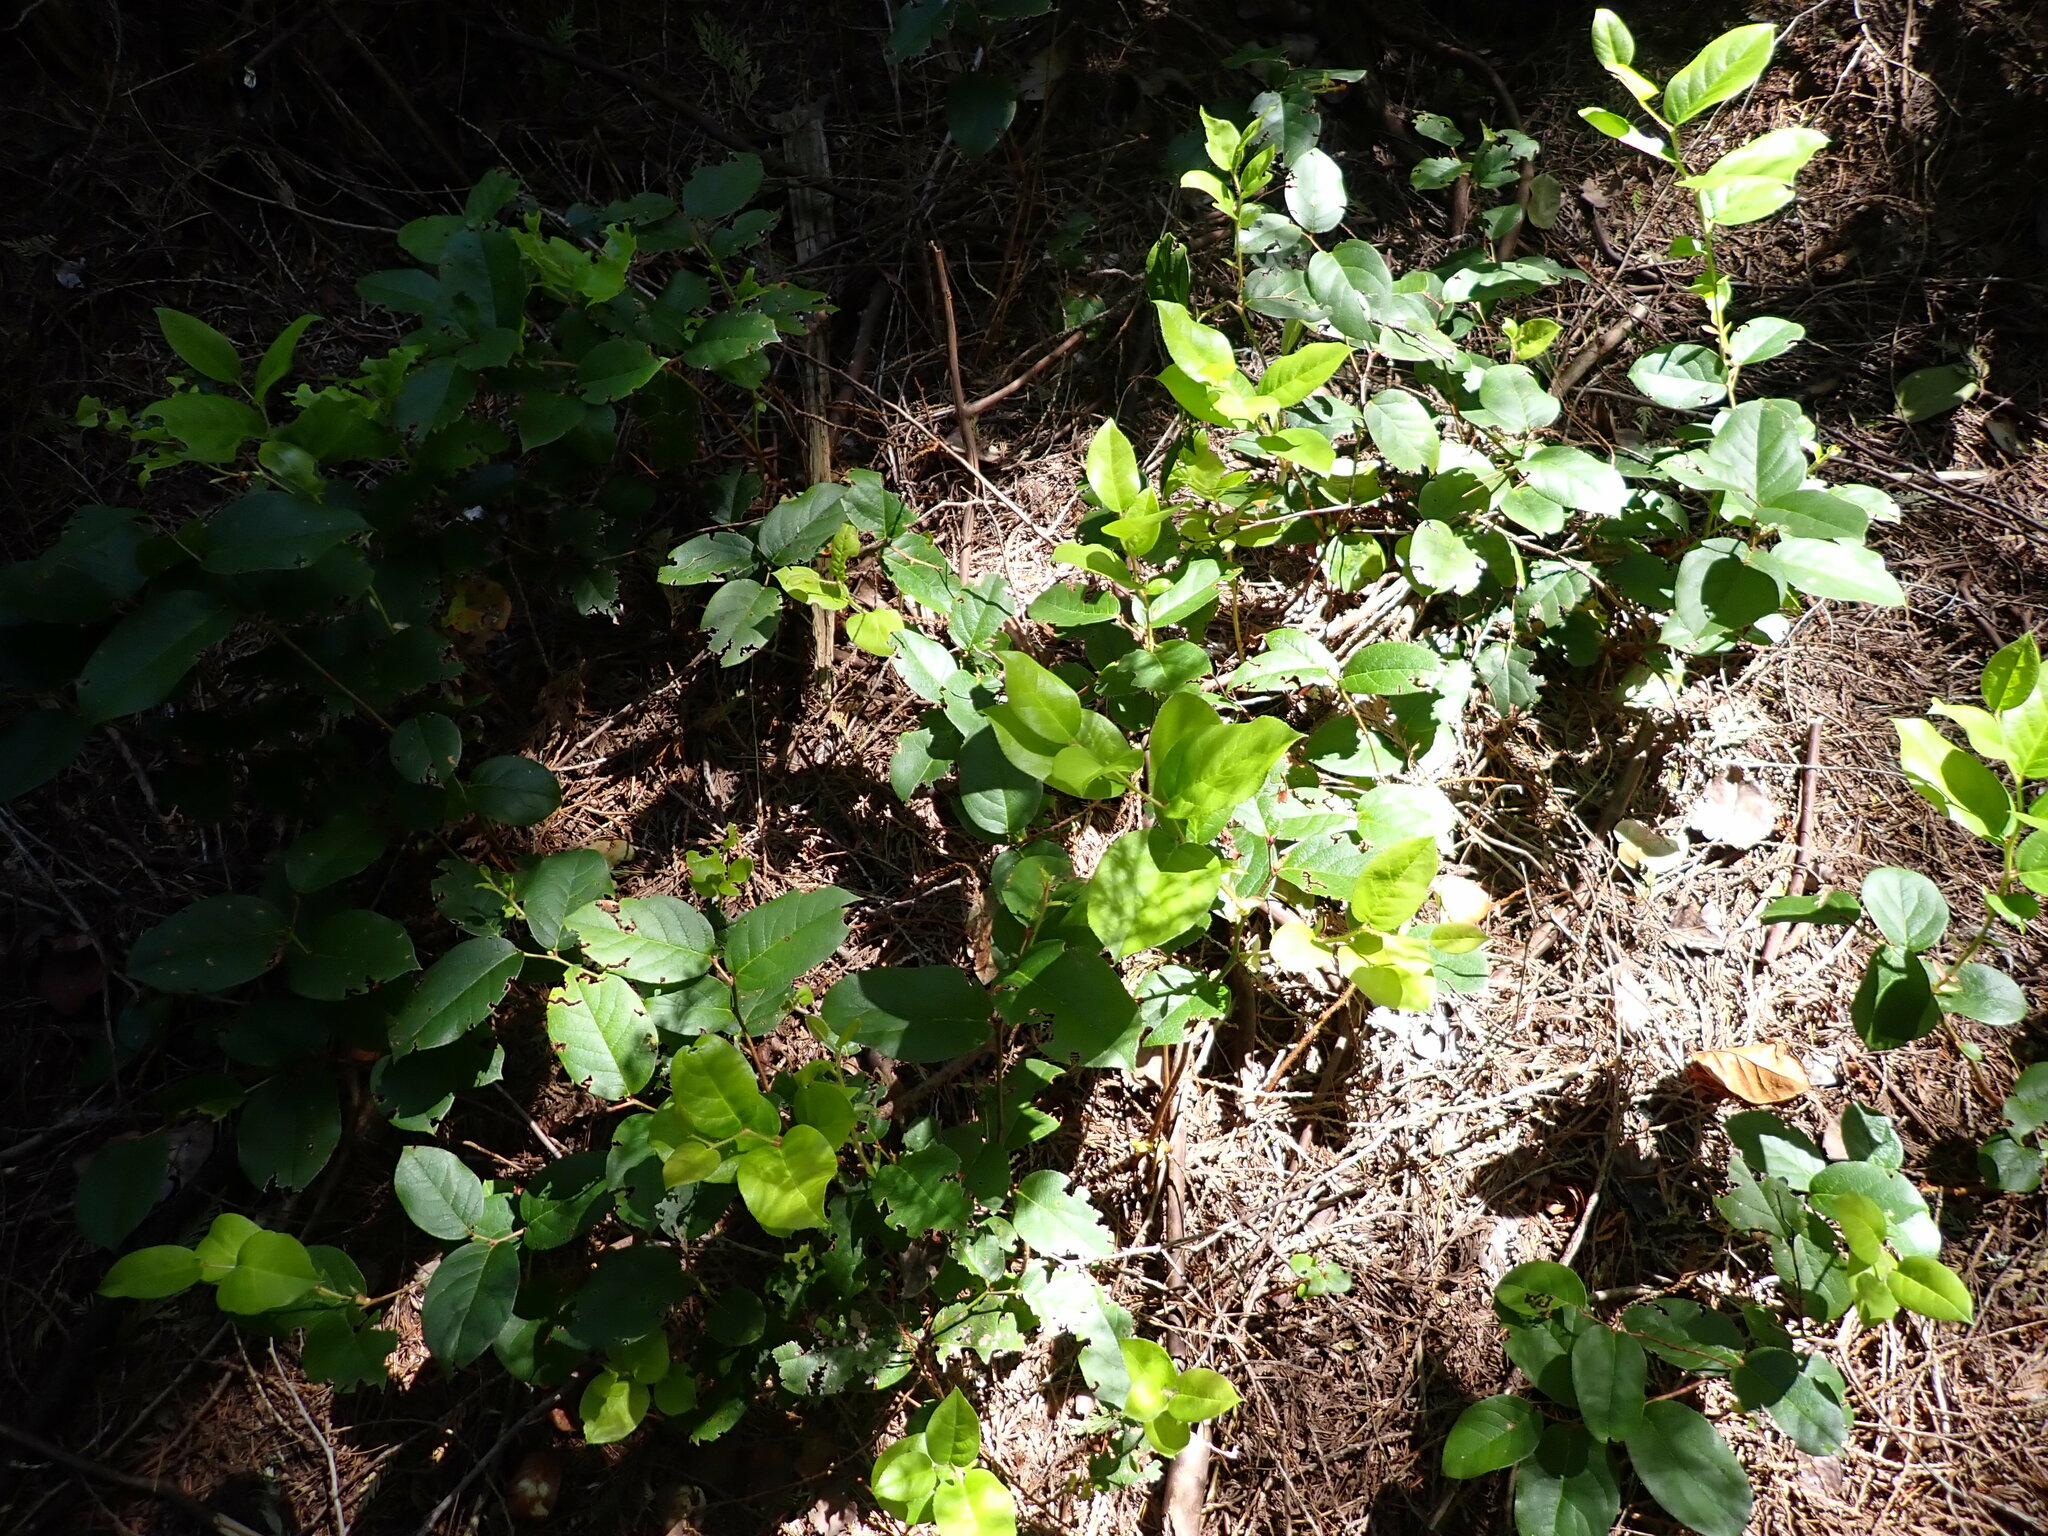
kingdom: Plantae
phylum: Tracheophyta
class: Magnoliopsida
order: Ericales
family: Ericaceae
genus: Gaultheria
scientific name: Gaultheria shallon
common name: Shallon
